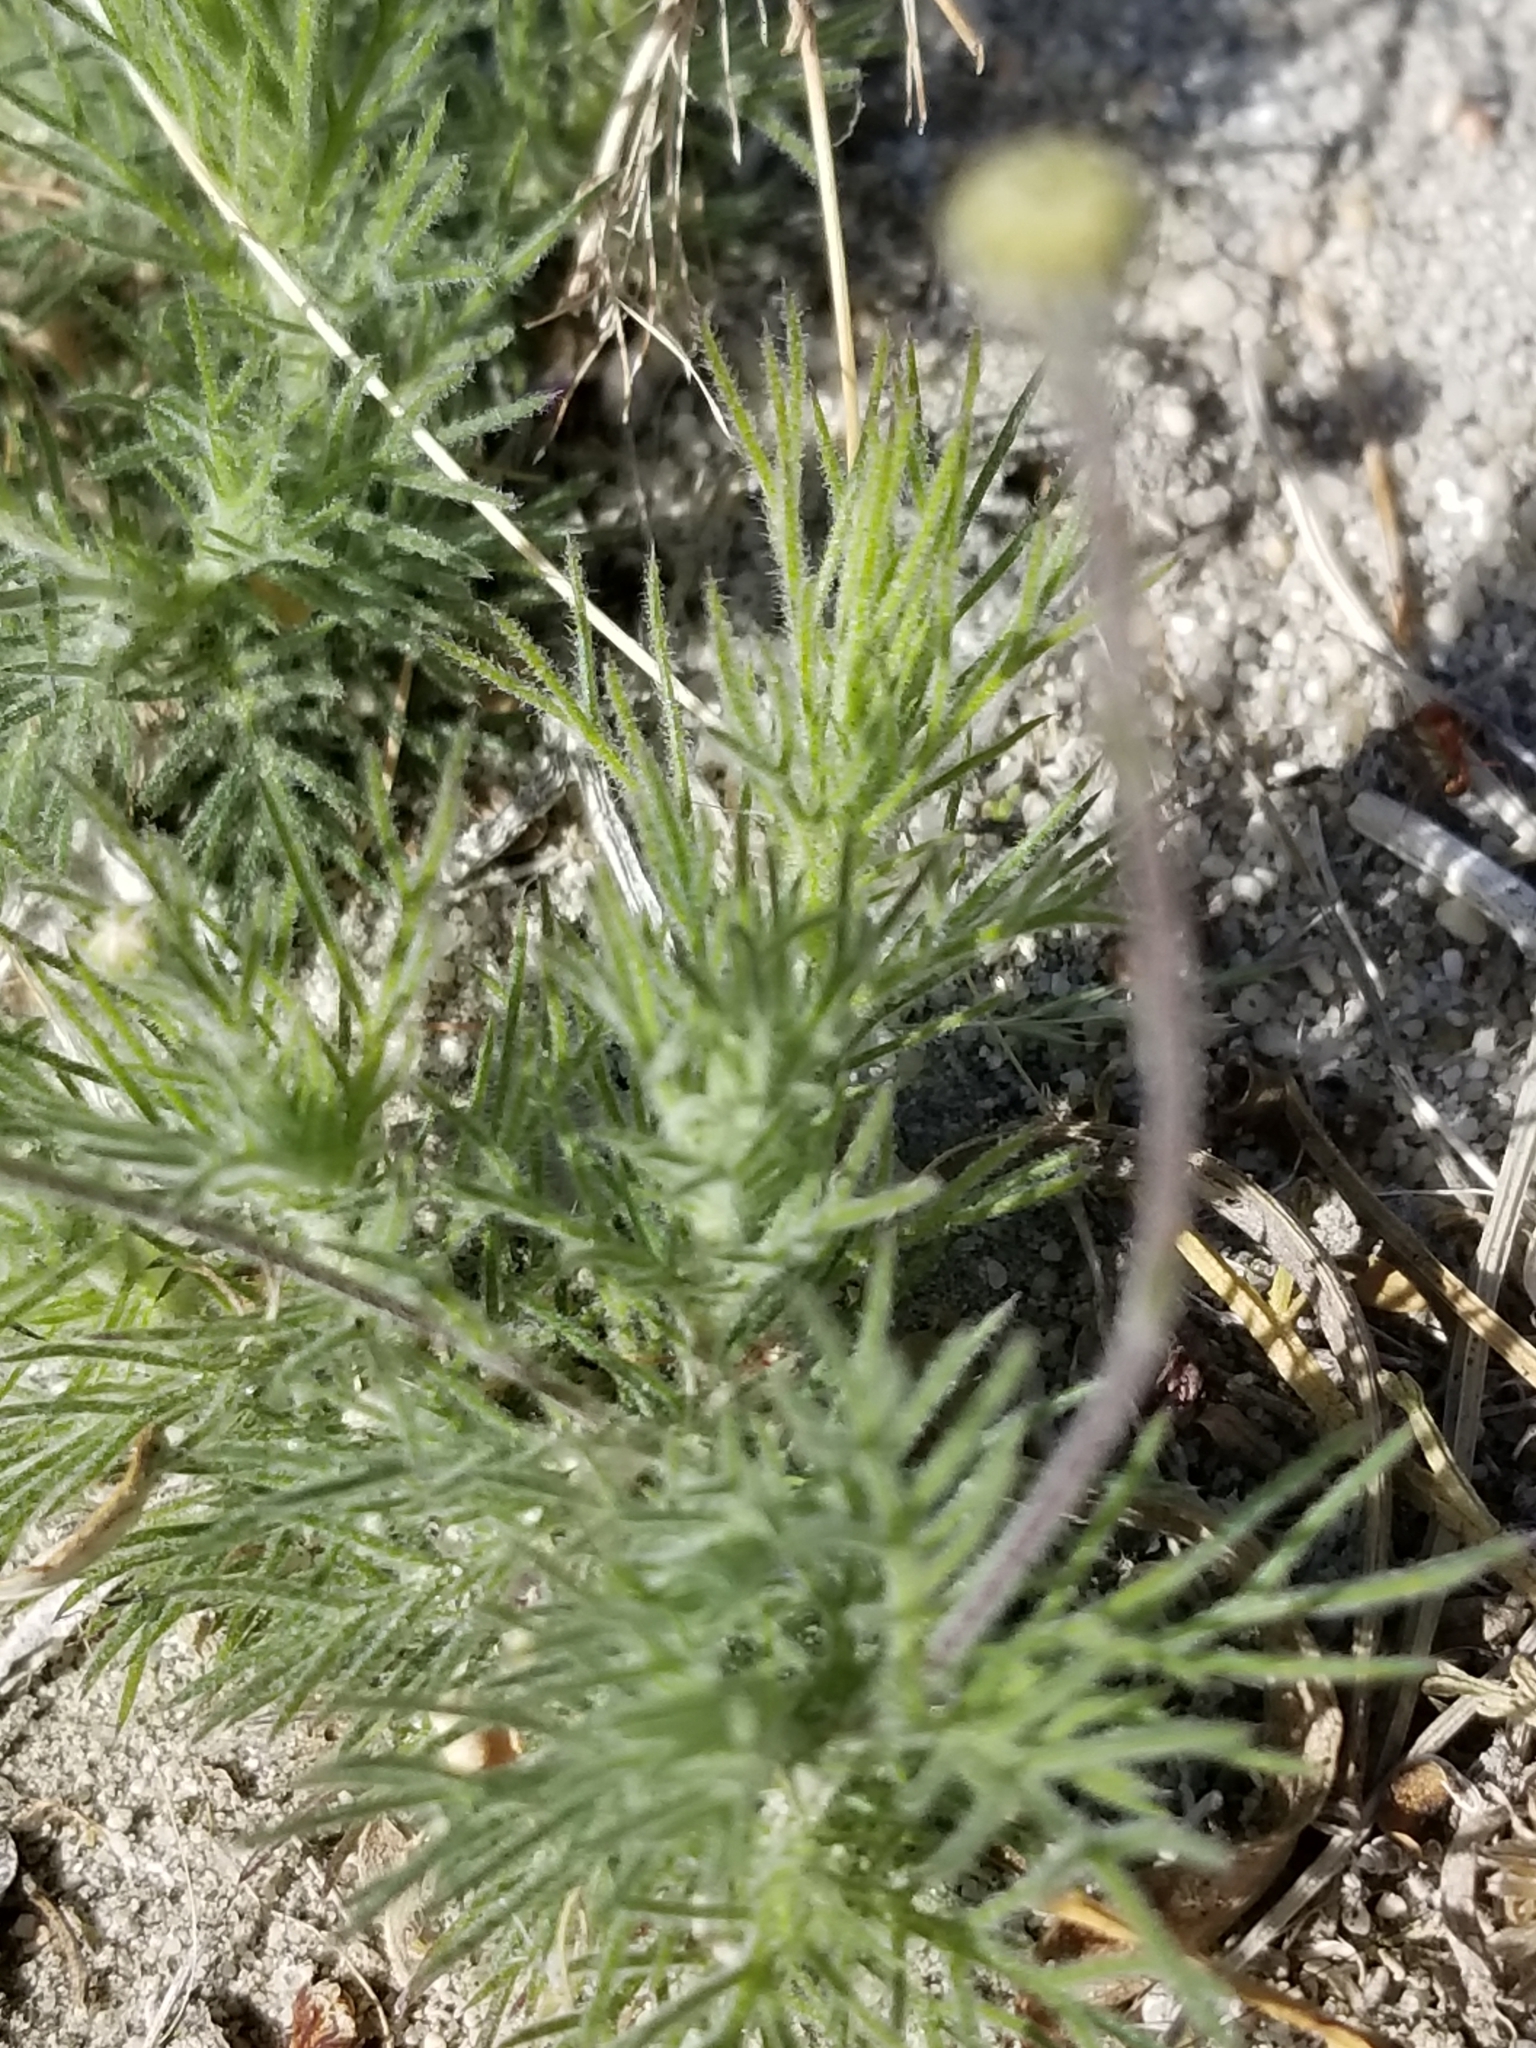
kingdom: Plantae
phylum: Tracheophyta
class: Magnoliopsida
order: Asterales
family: Asteraceae
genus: Thymophylla
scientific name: Thymophylla pentachaeta
